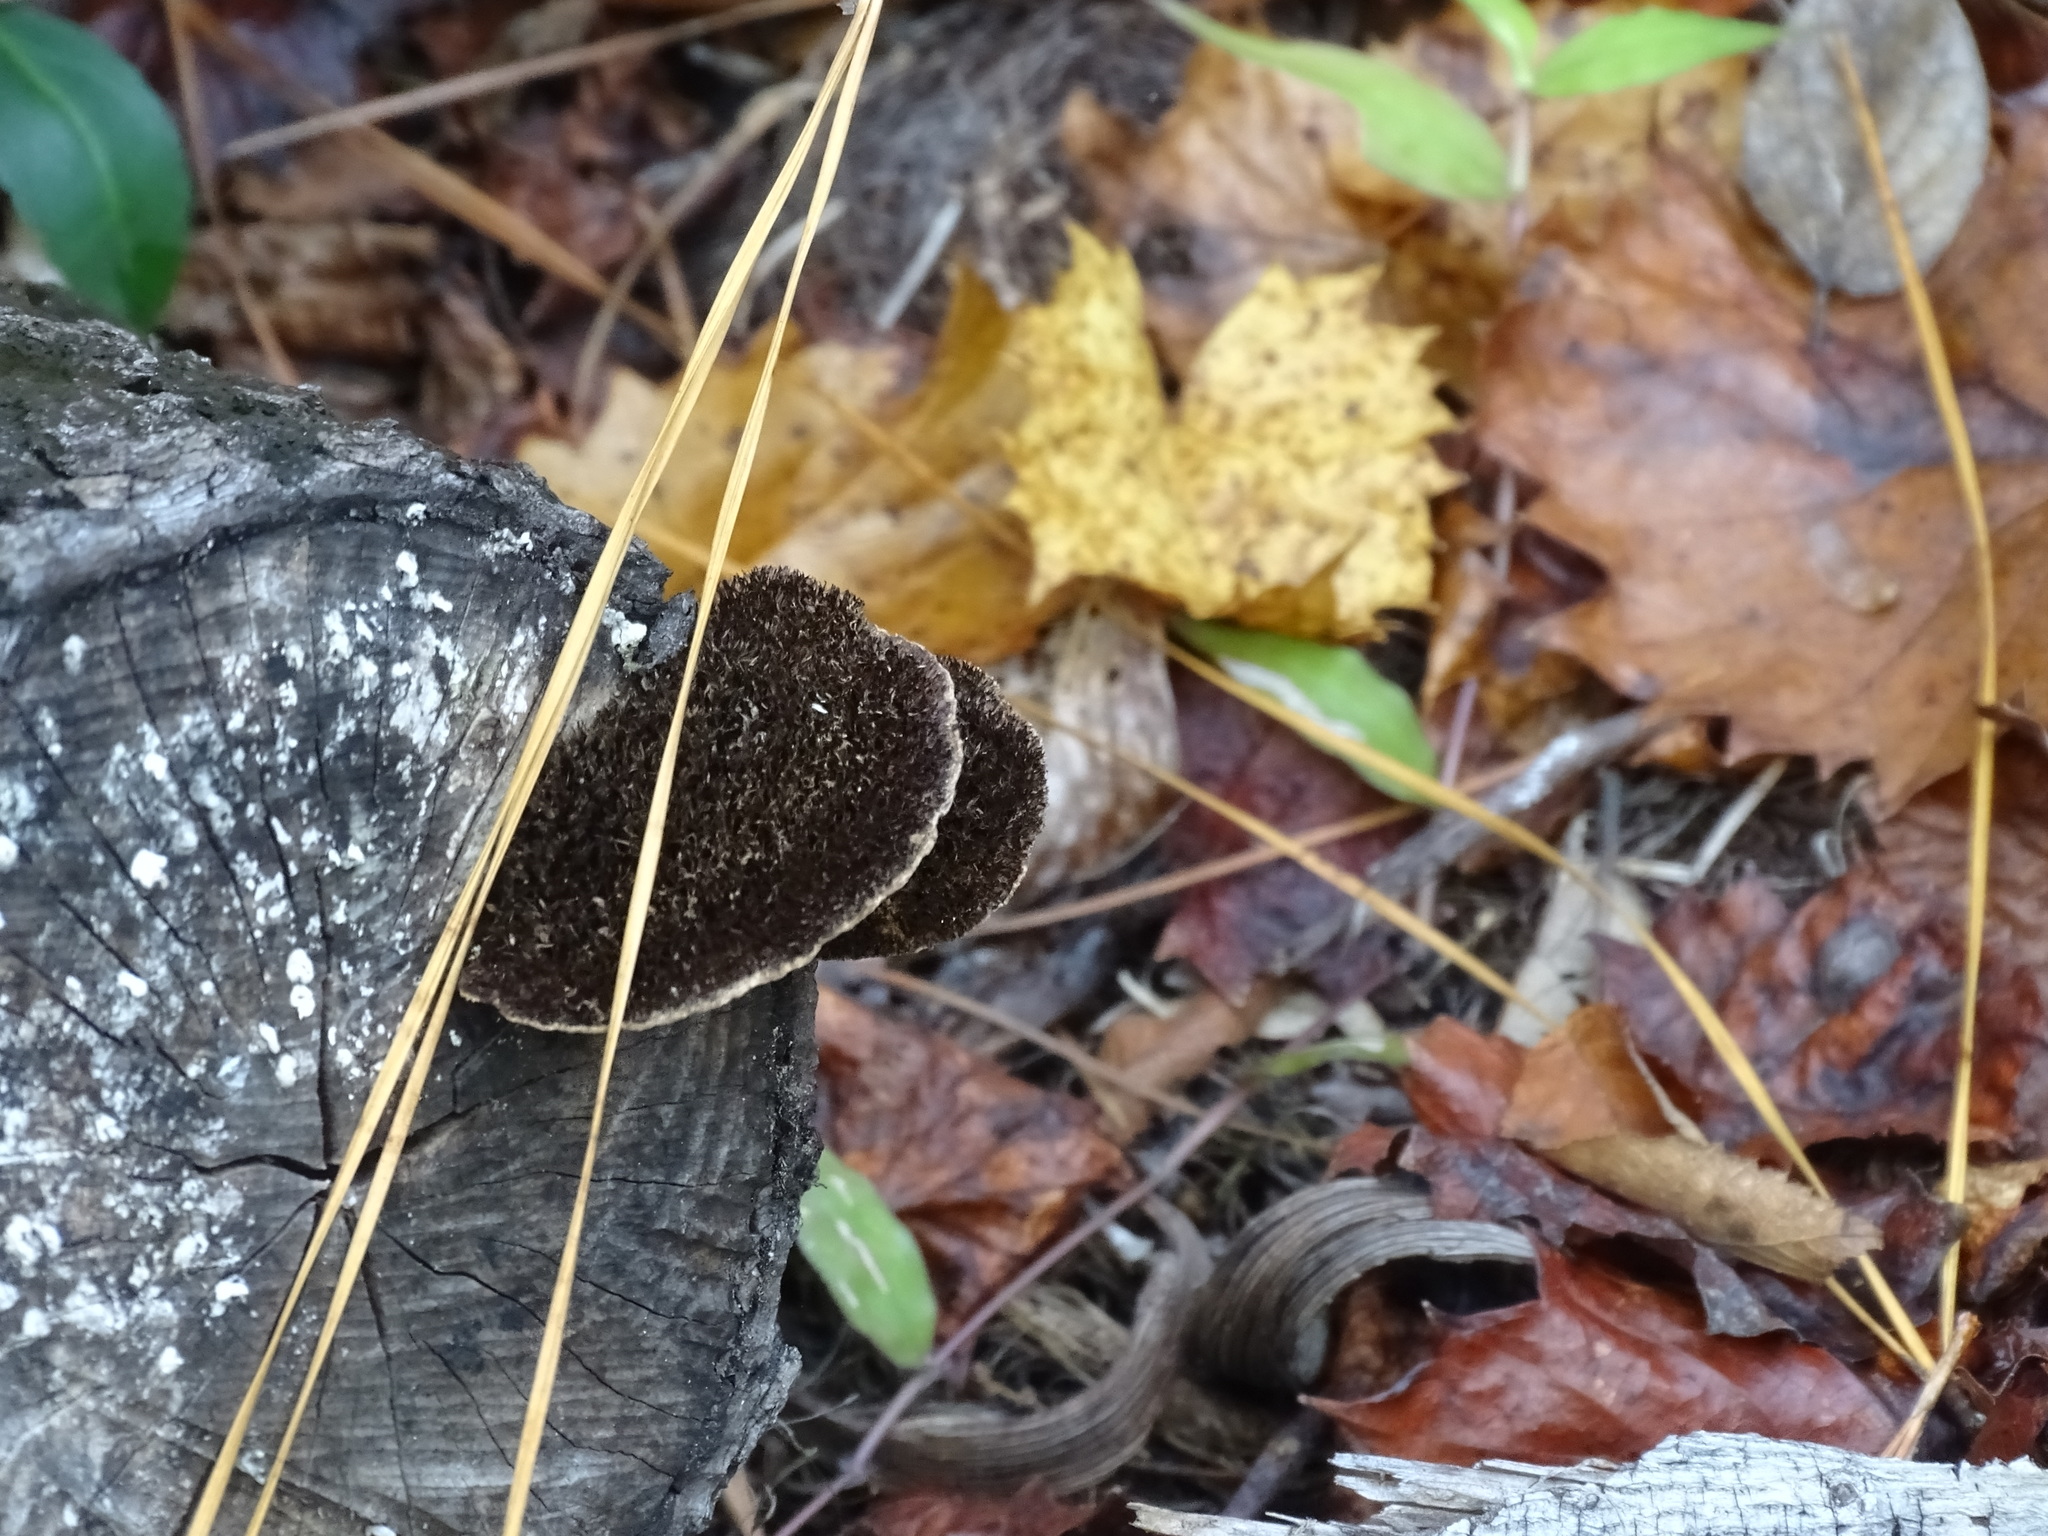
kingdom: Fungi
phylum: Basidiomycota
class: Agaricomycetes
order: Polyporales
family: Cerrenaceae
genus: Cerrena
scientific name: Cerrena hydnoides
